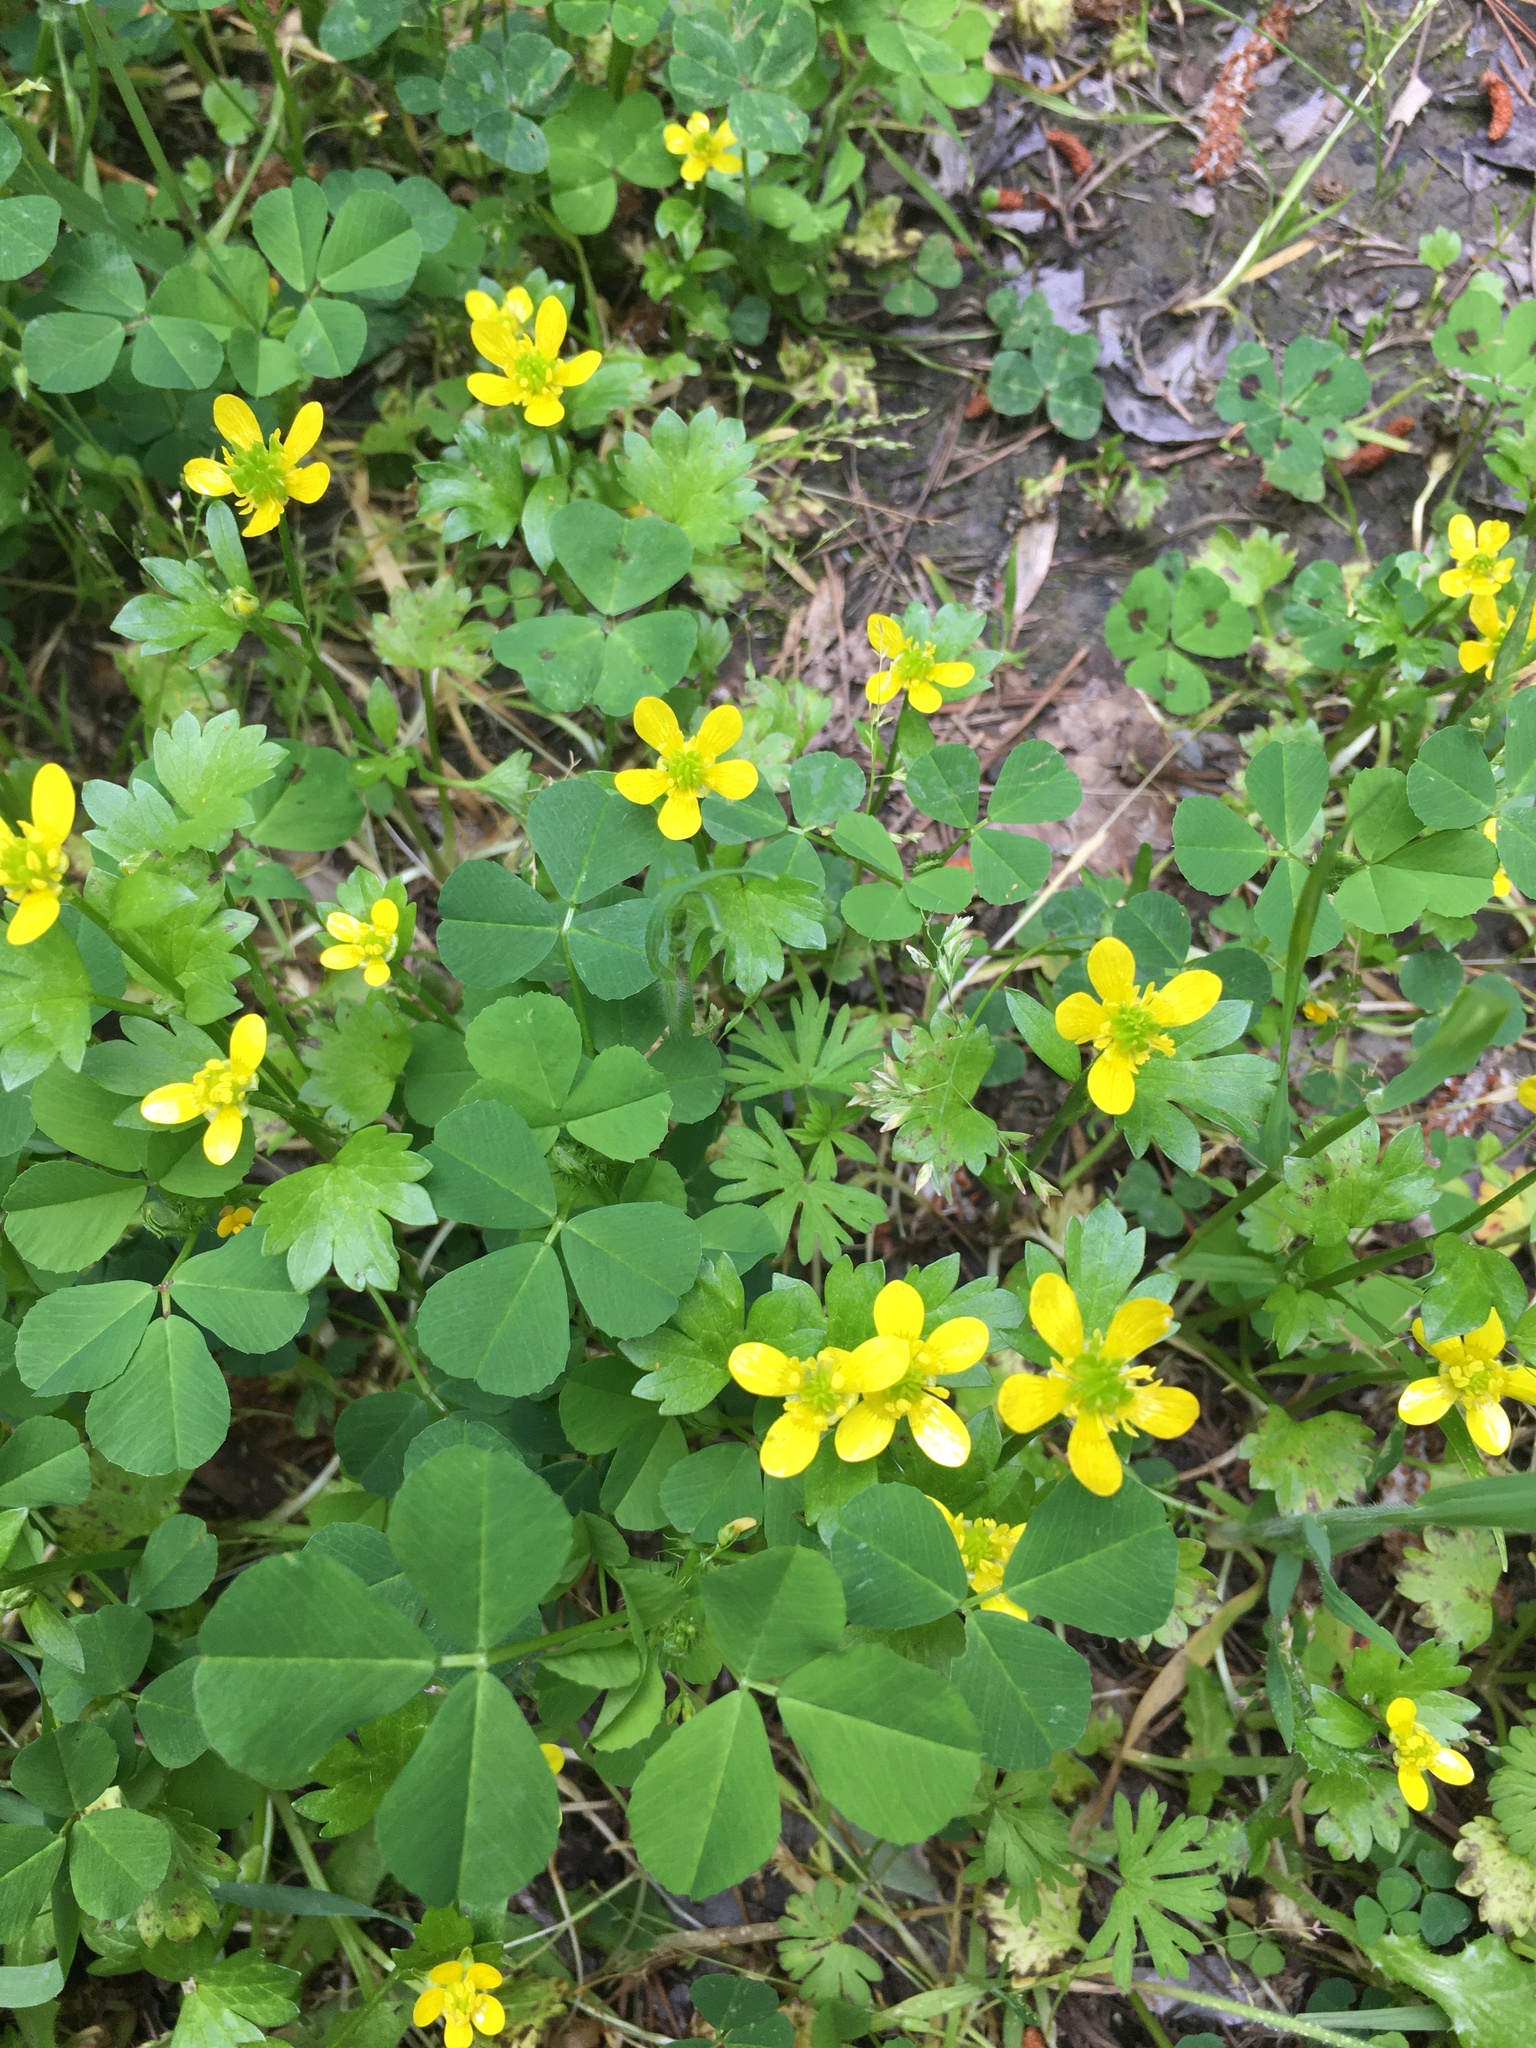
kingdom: Plantae
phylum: Tracheophyta
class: Magnoliopsida
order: Ranunculales
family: Ranunculaceae
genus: Ranunculus
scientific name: Ranunculus muricatus
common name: Rough-fruited buttercup
